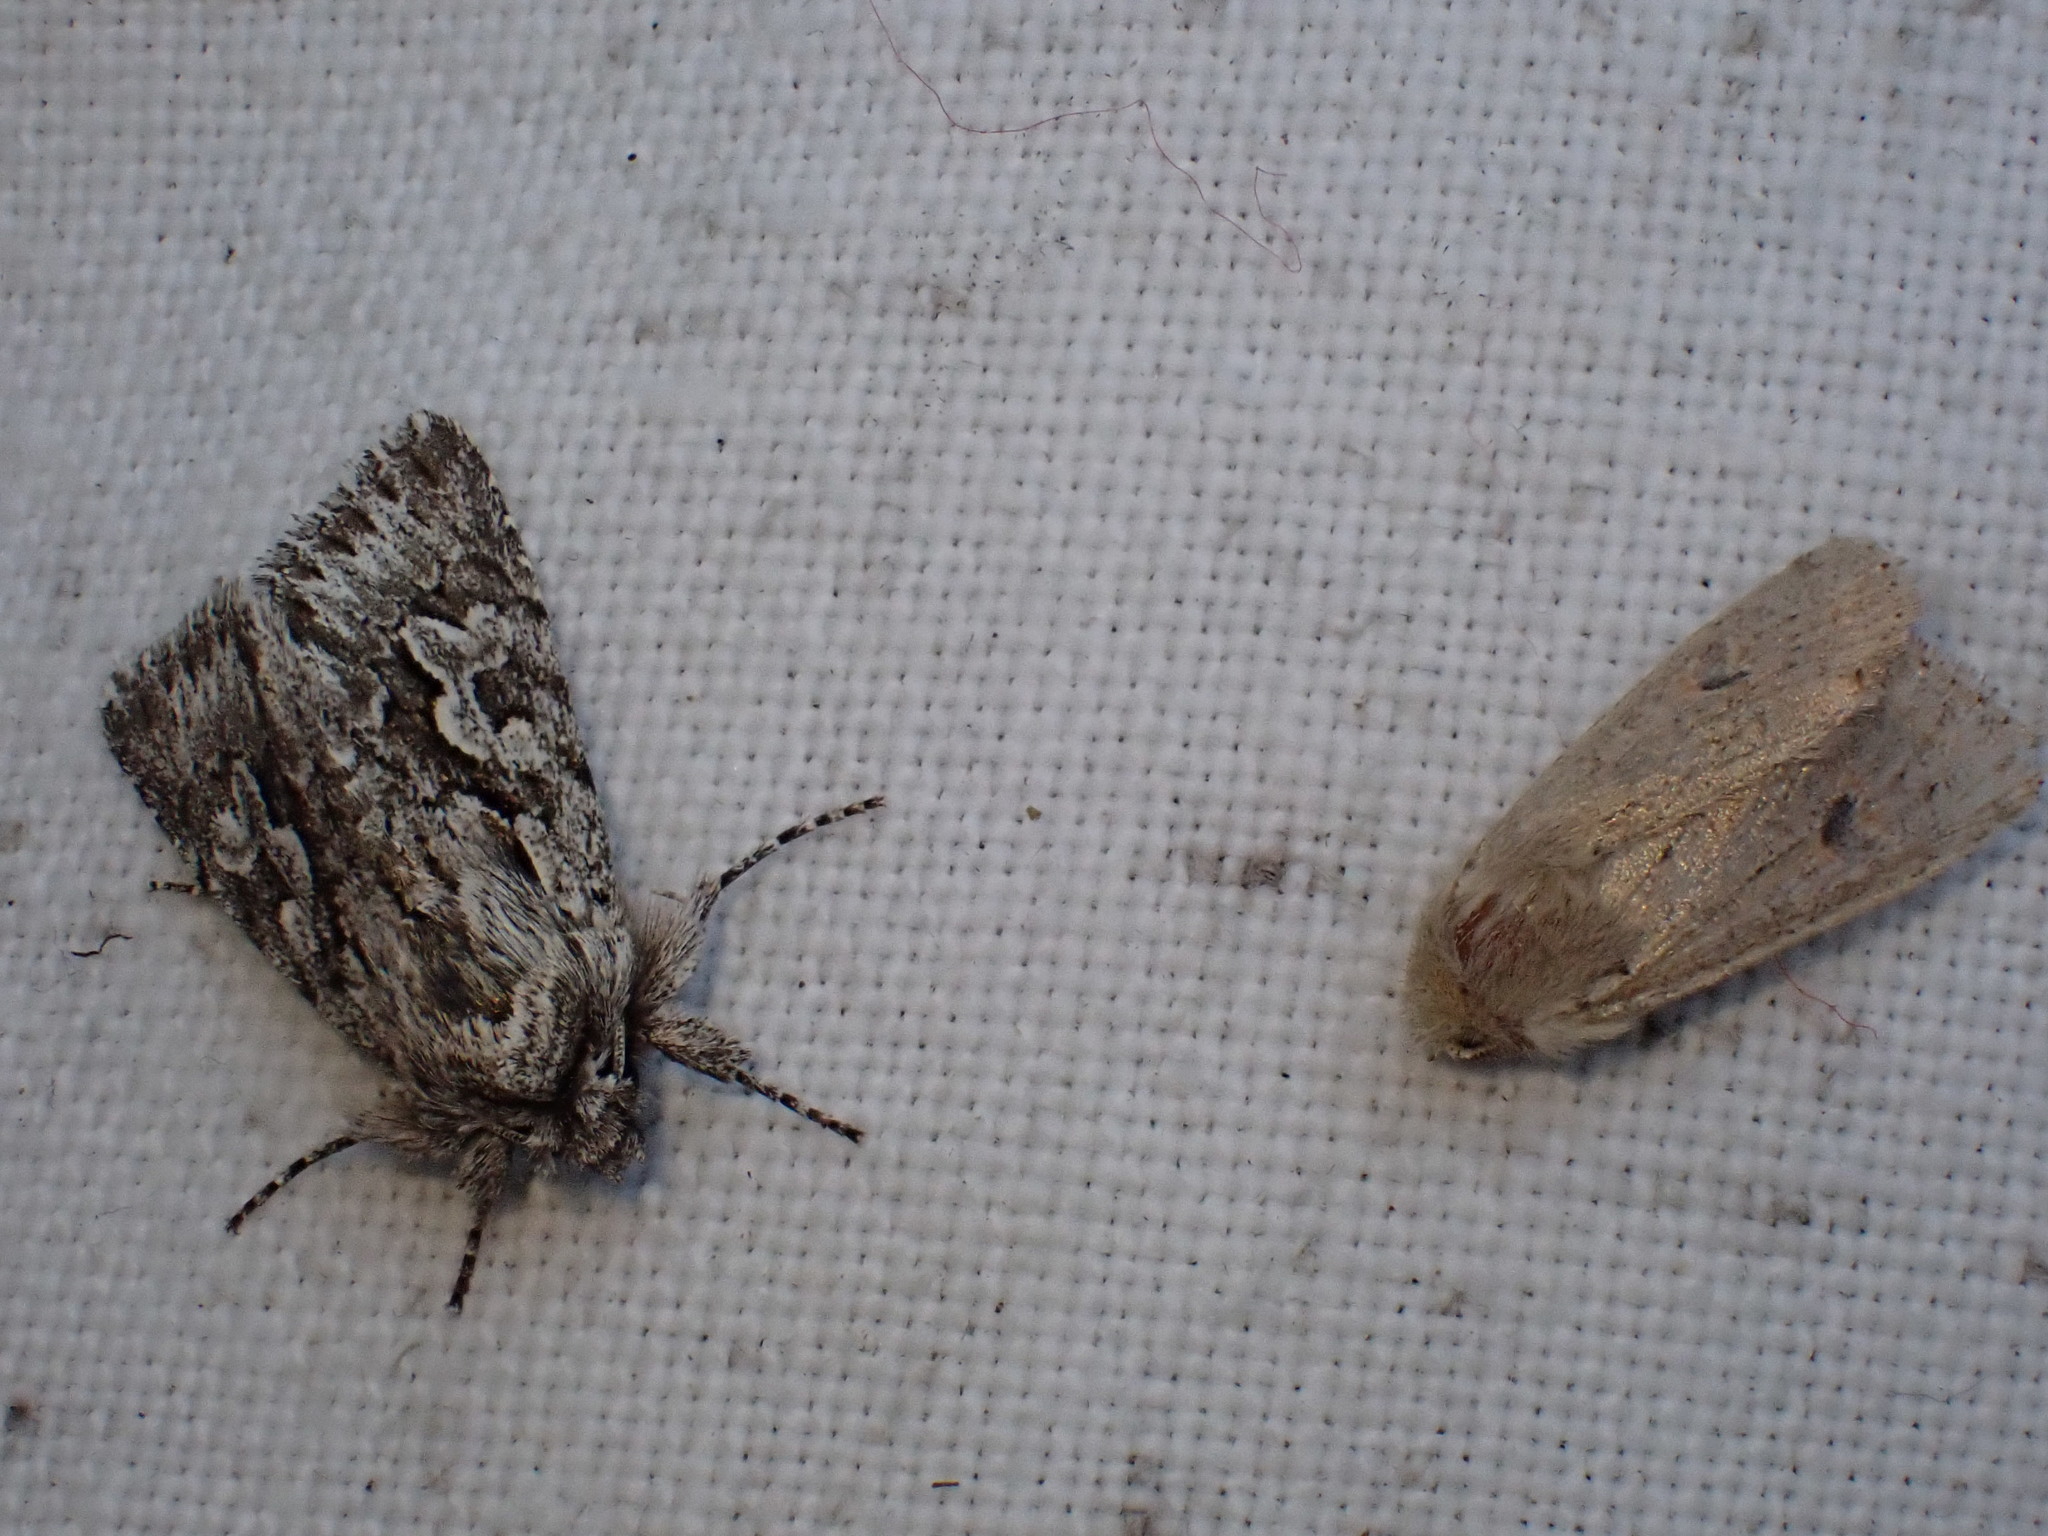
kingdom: Animalia
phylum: Arthropoda
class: Insecta
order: Lepidoptera
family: Noctuidae
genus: Orthosia
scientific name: Orthosia cruda
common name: Small quaker
